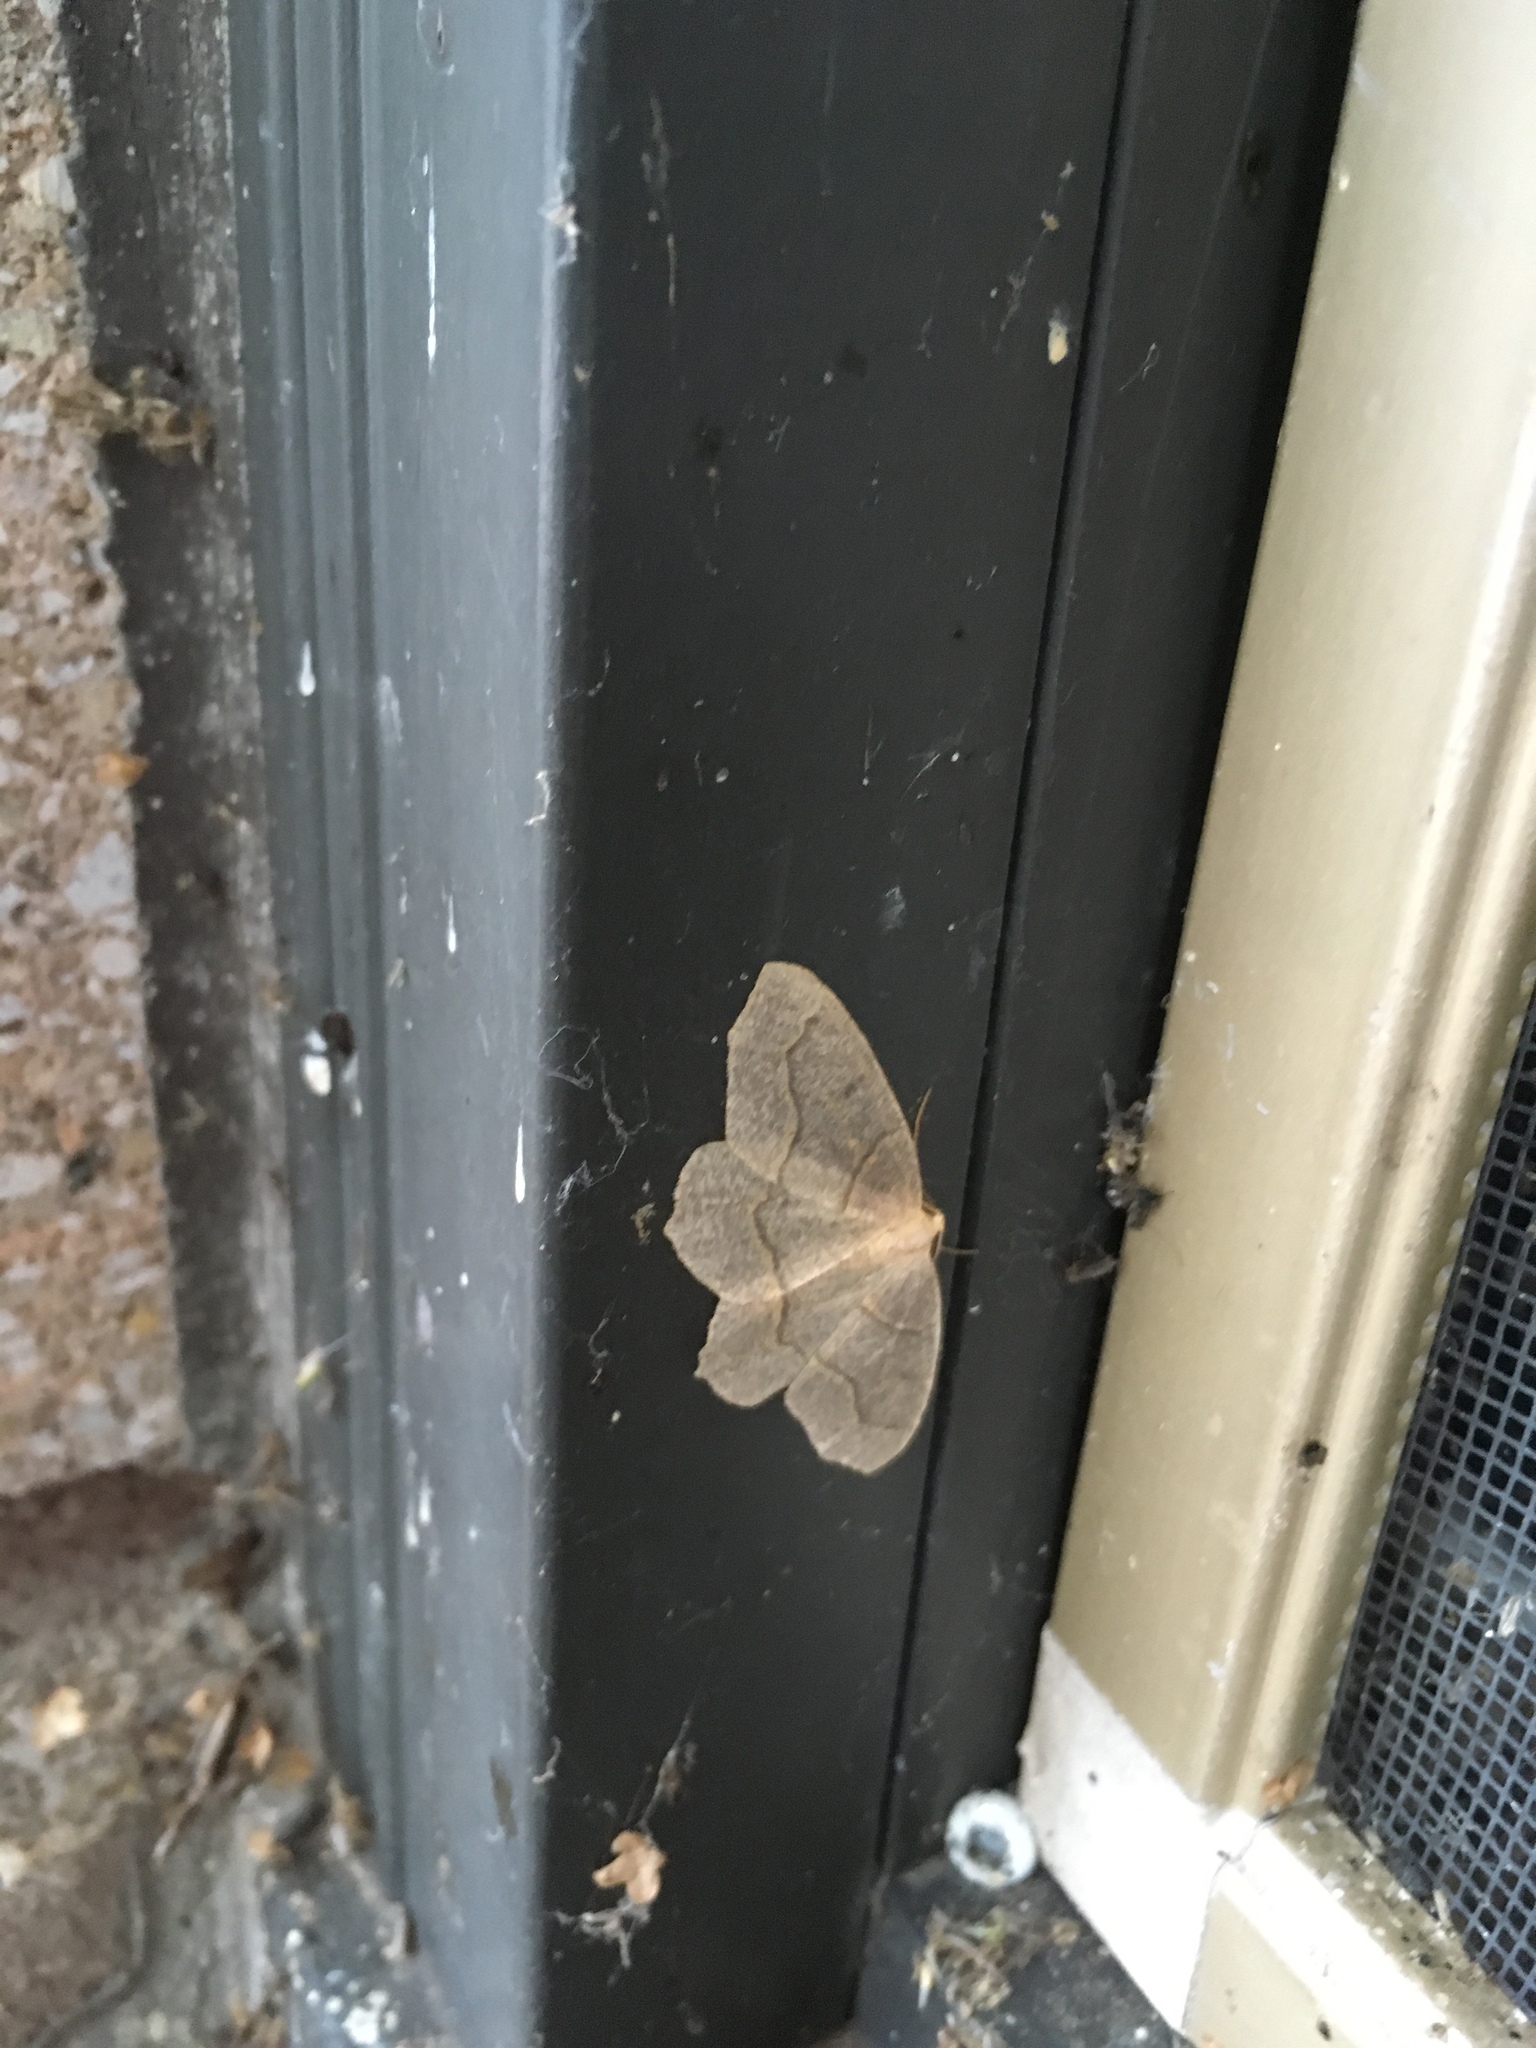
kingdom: Animalia
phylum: Arthropoda
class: Insecta
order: Lepidoptera
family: Geometridae
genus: Lambdina
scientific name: Lambdina fiscellaria
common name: Hemlock looper
